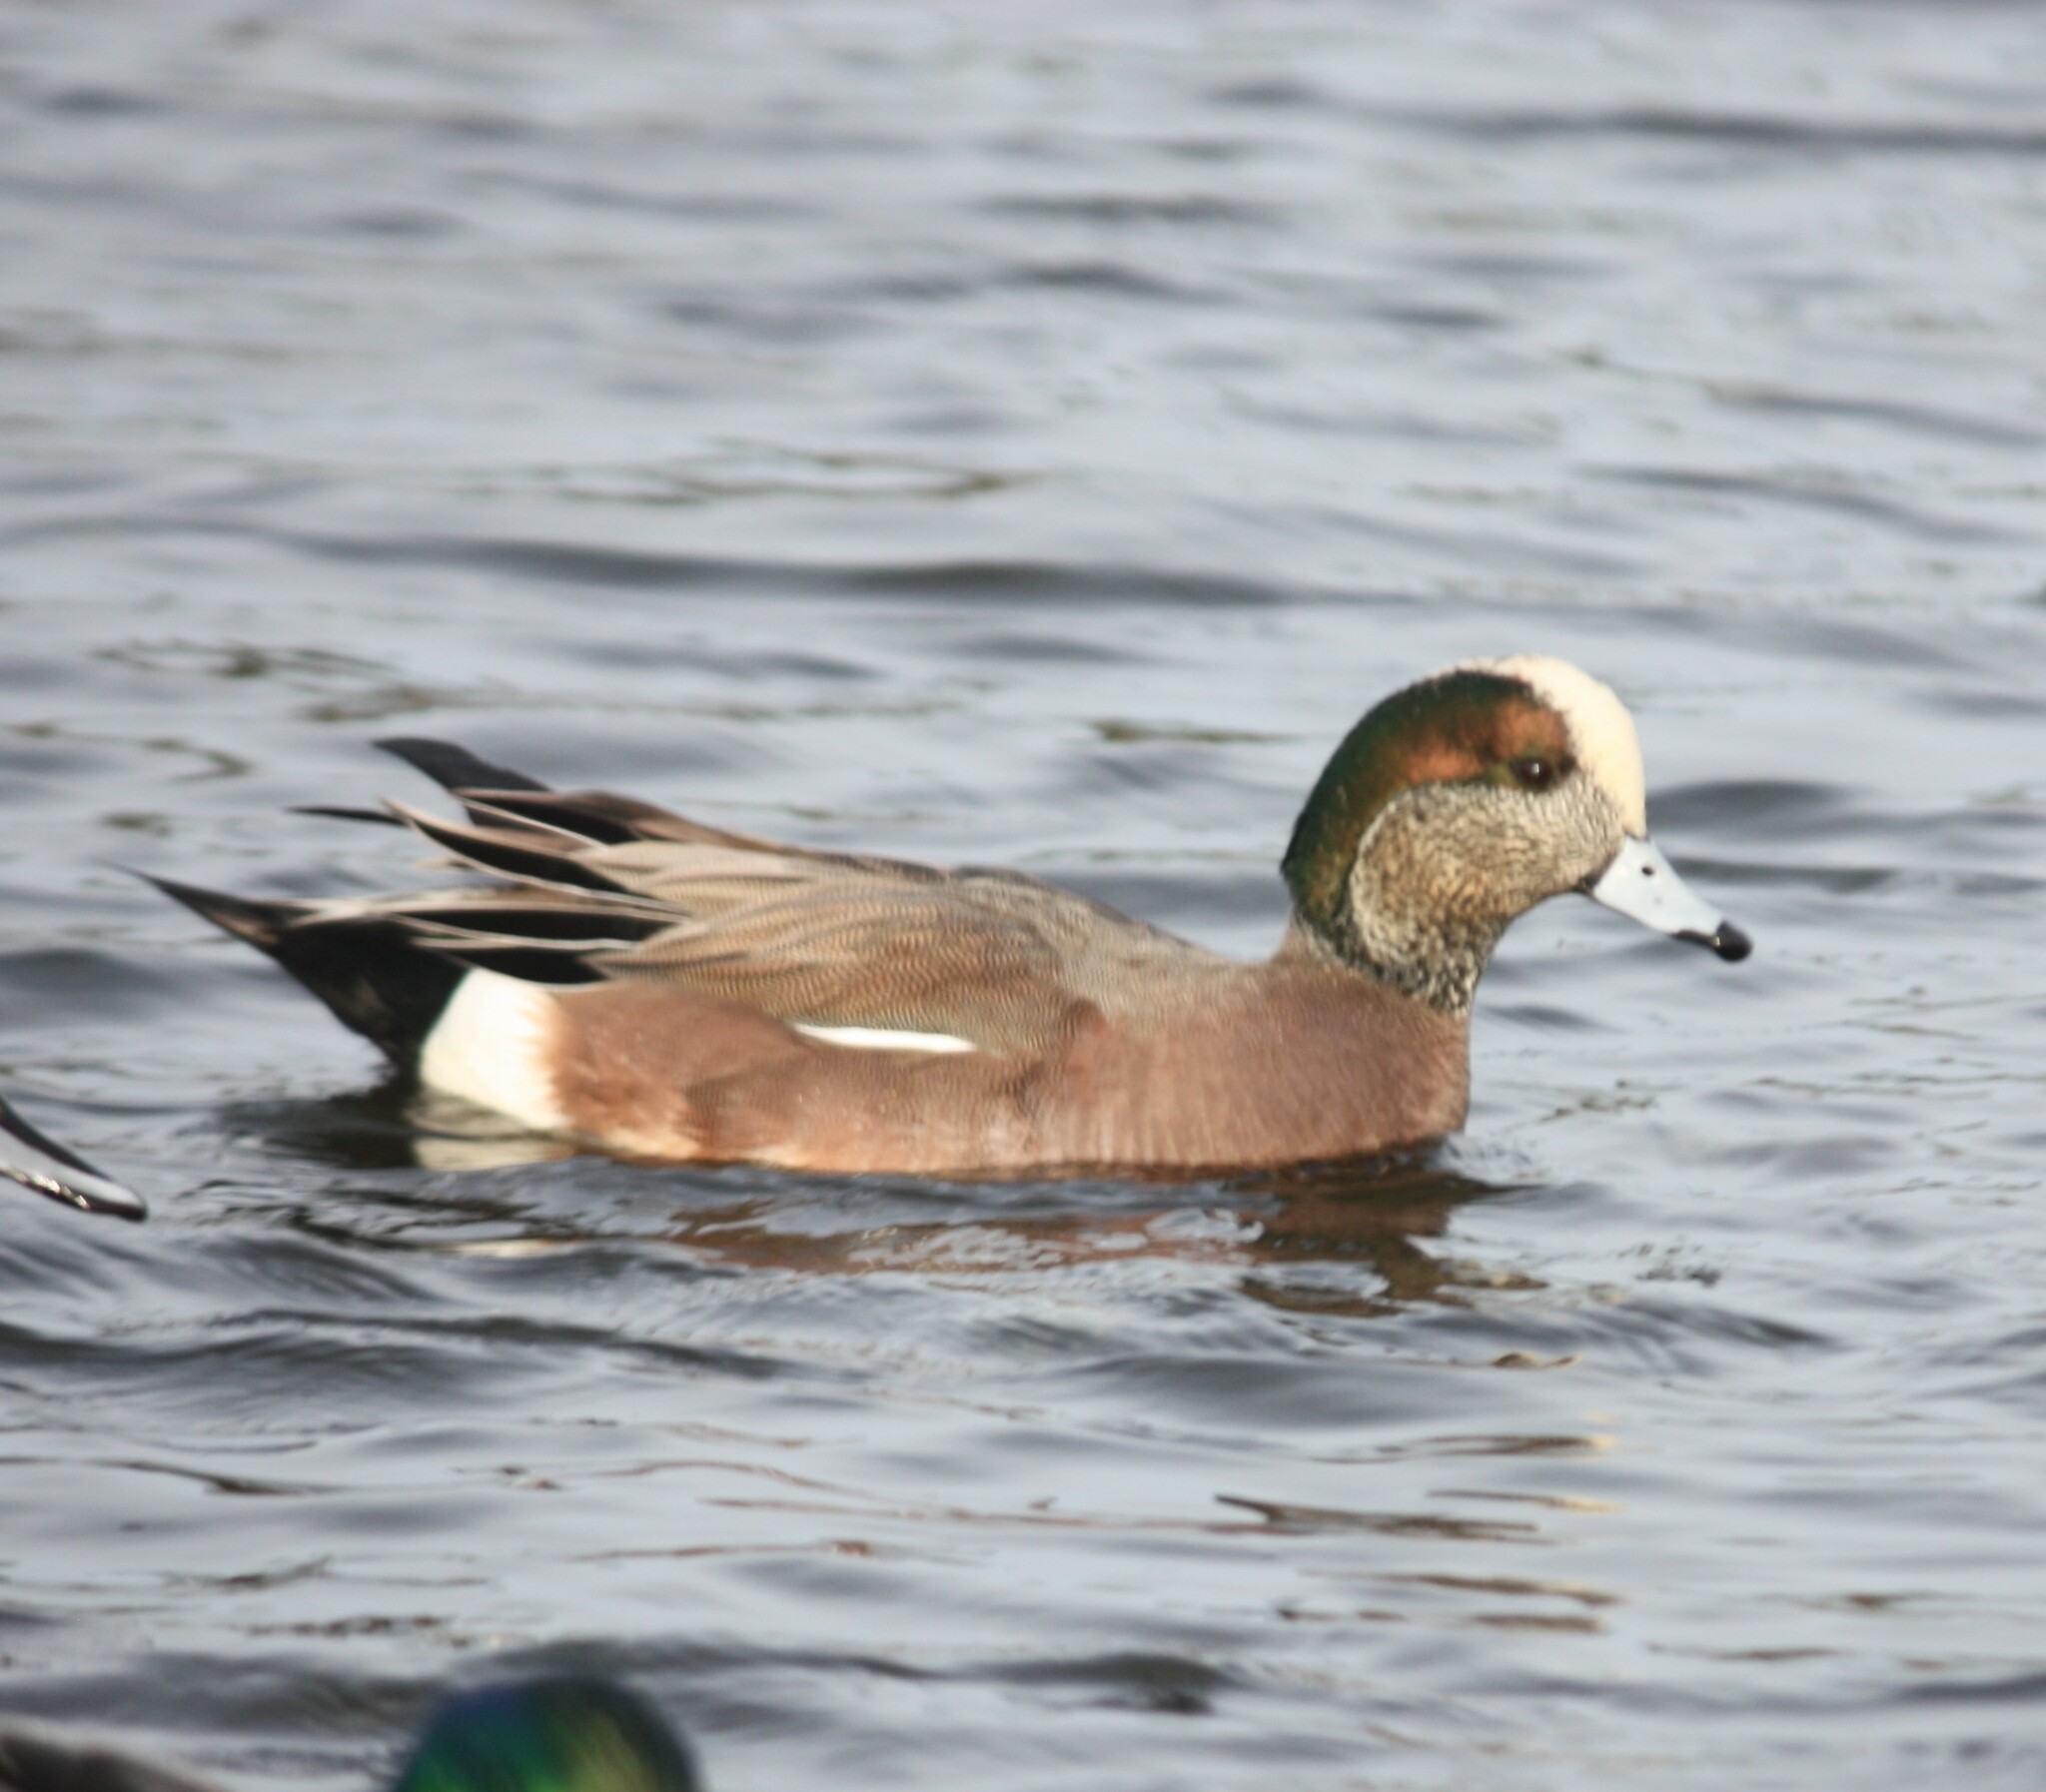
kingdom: Animalia
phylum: Chordata
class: Aves
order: Anseriformes
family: Anatidae
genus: Mareca
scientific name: Mareca americana
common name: American wigeon
